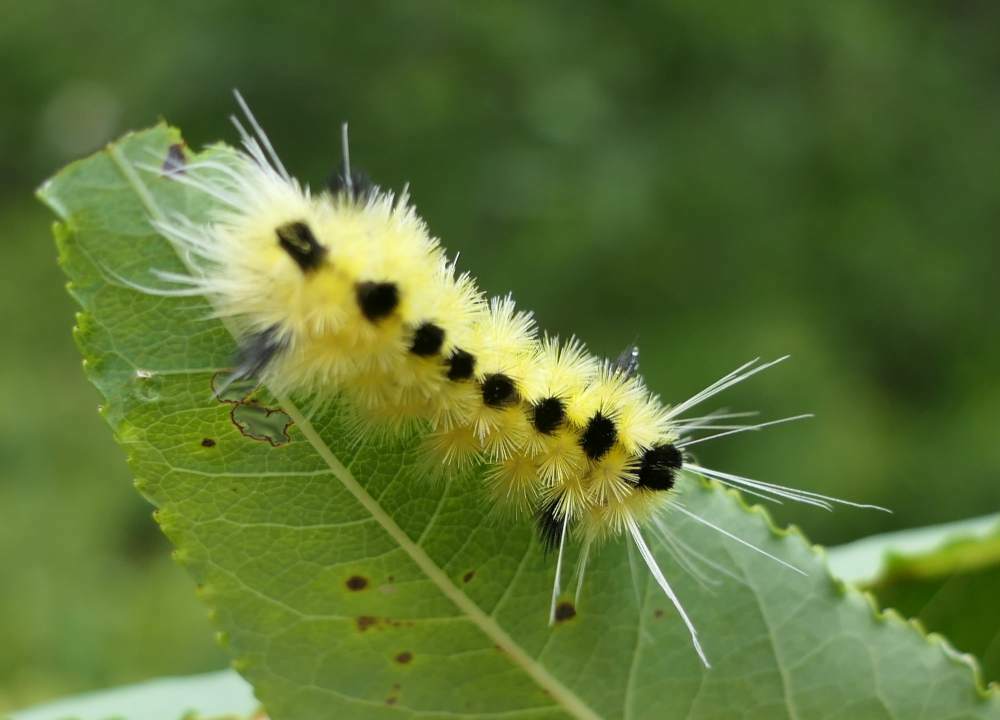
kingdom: Animalia
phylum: Arthropoda
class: Insecta
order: Lepidoptera
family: Erebidae
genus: Lophocampa
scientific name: Lophocampa maculata
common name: Spotted tussock moth
